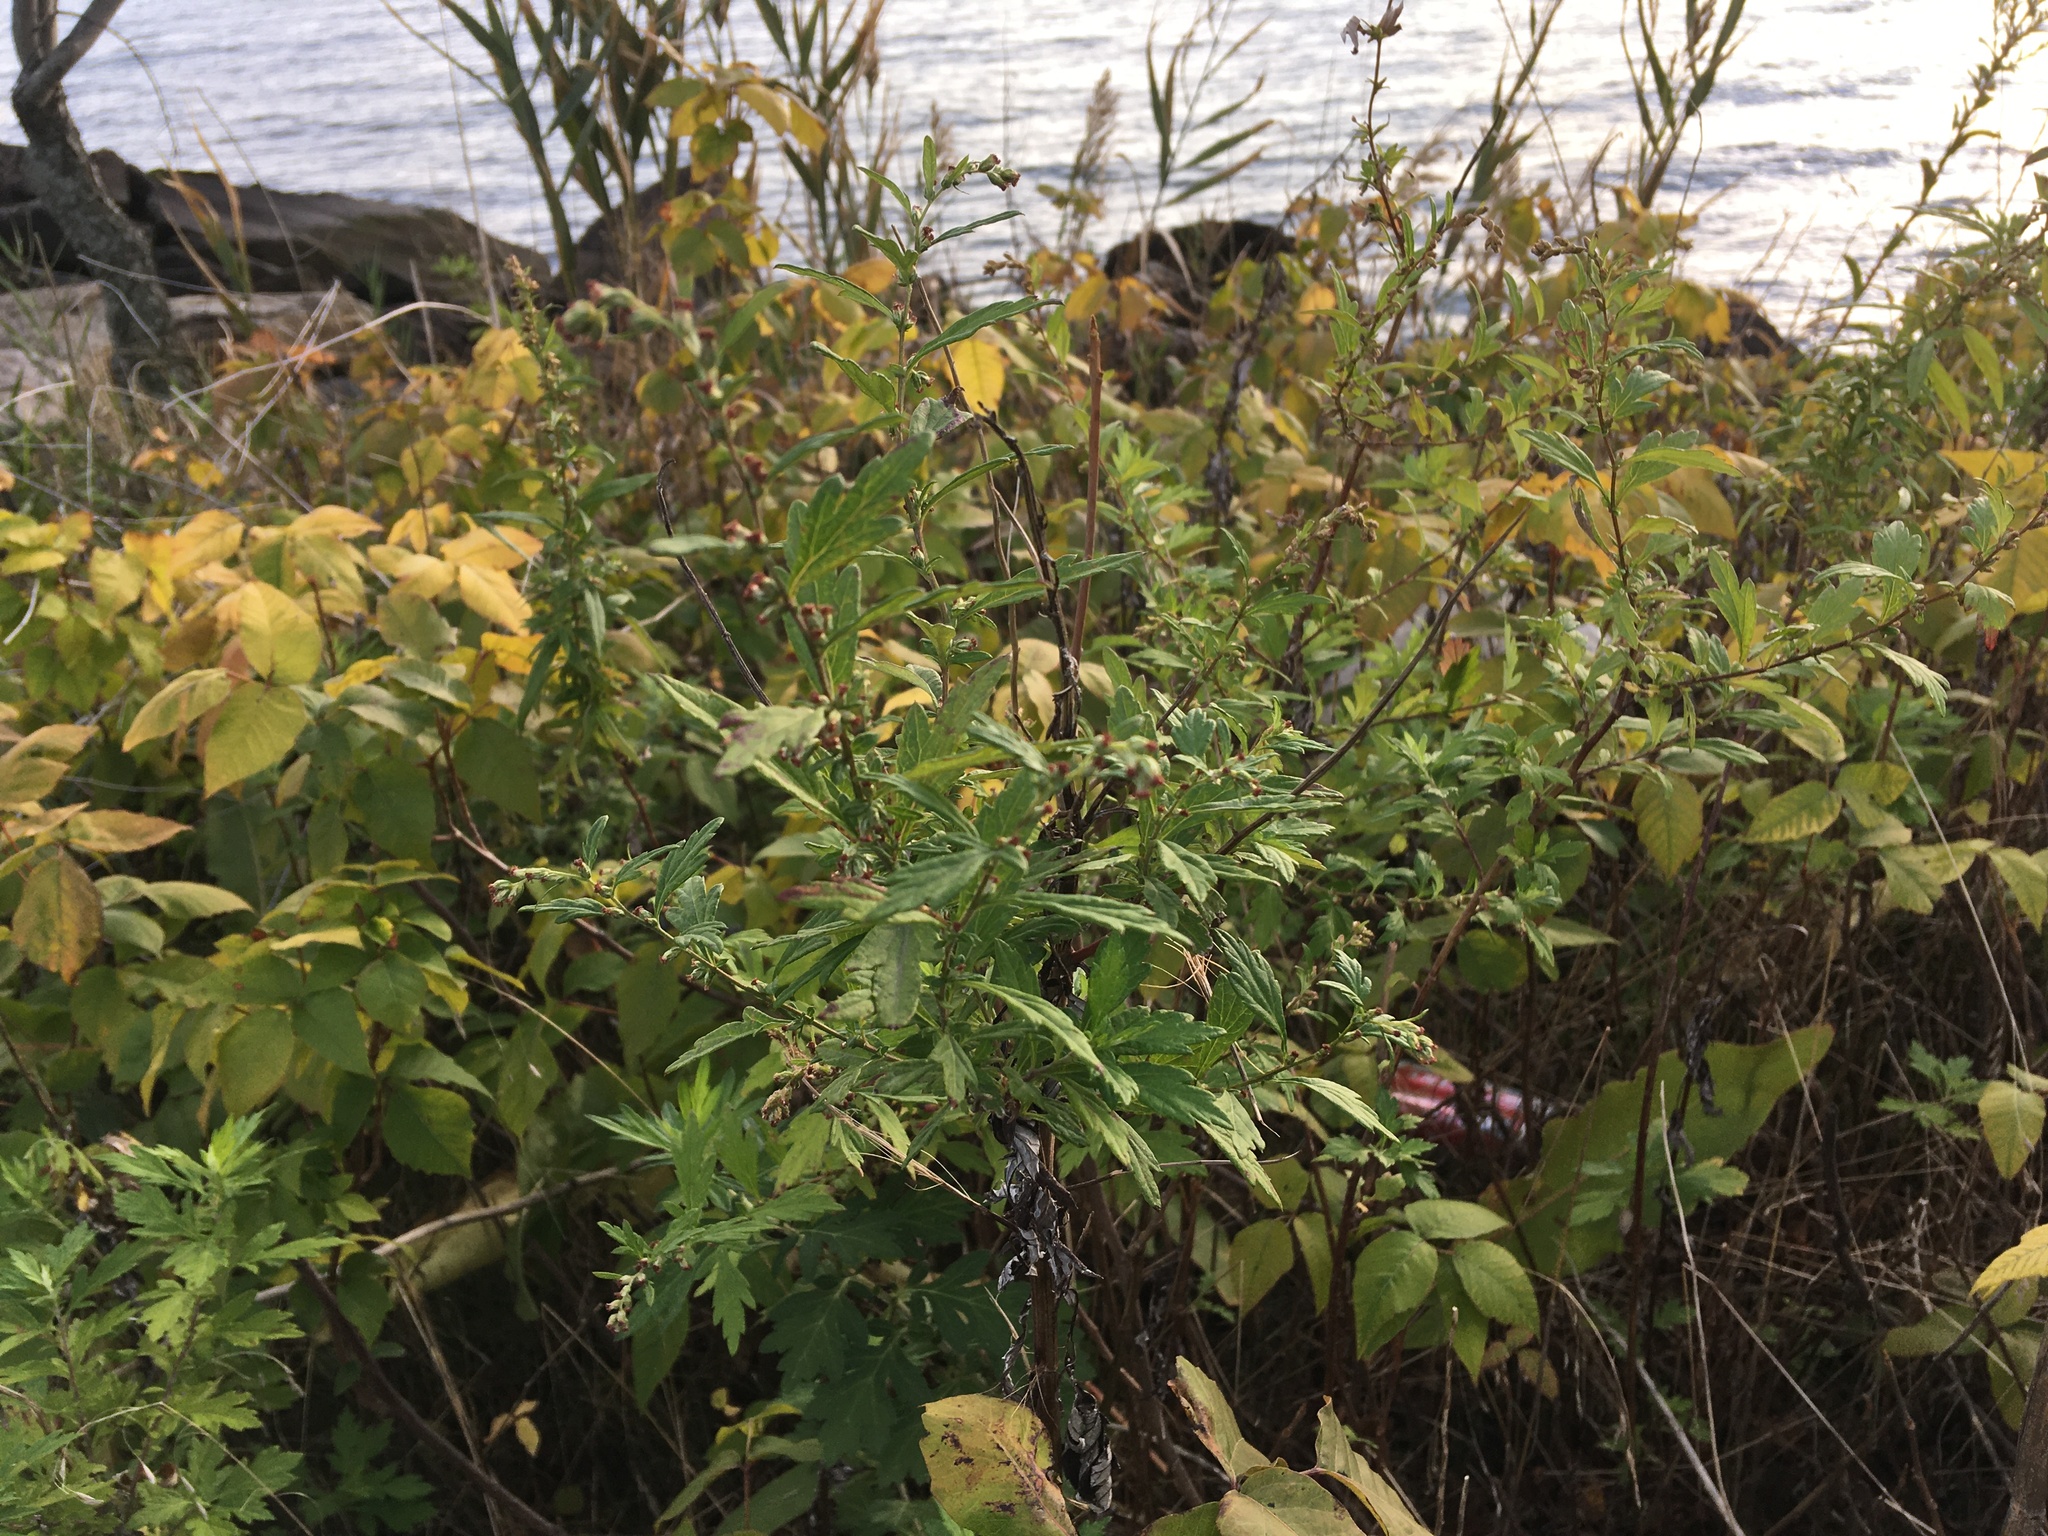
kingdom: Plantae
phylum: Tracheophyta
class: Magnoliopsida
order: Asterales
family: Asteraceae
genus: Artemisia
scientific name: Artemisia vulgaris
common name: Mugwort
